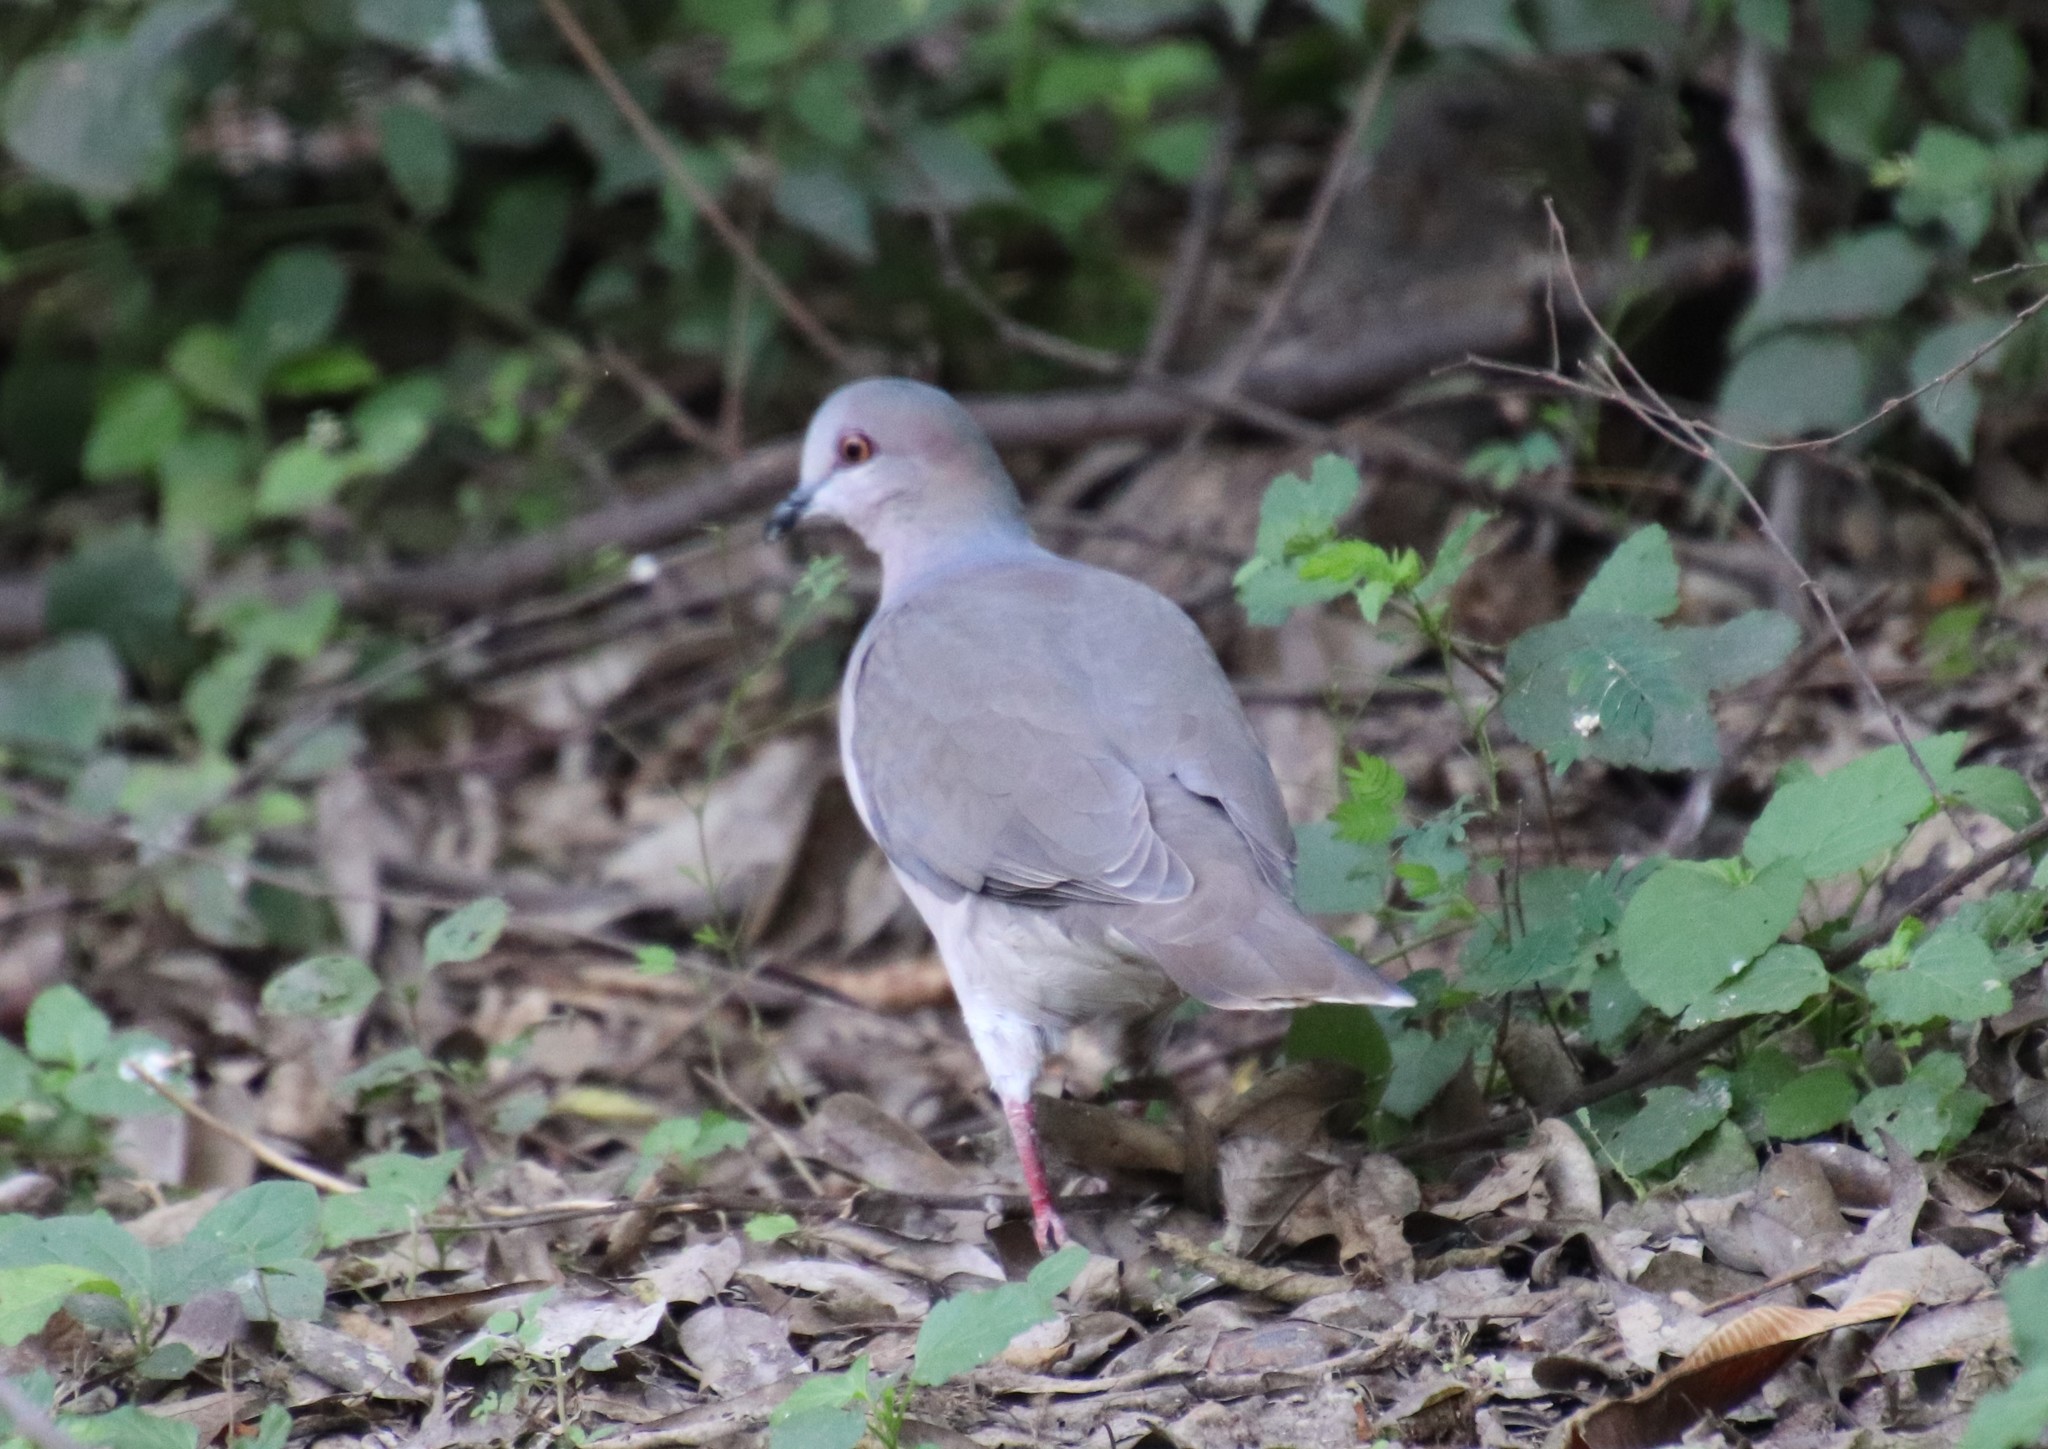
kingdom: Animalia
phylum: Chordata
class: Aves
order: Columbiformes
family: Columbidae
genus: Leptotila
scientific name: Leptotila verreauxi
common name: White-tipped dove
